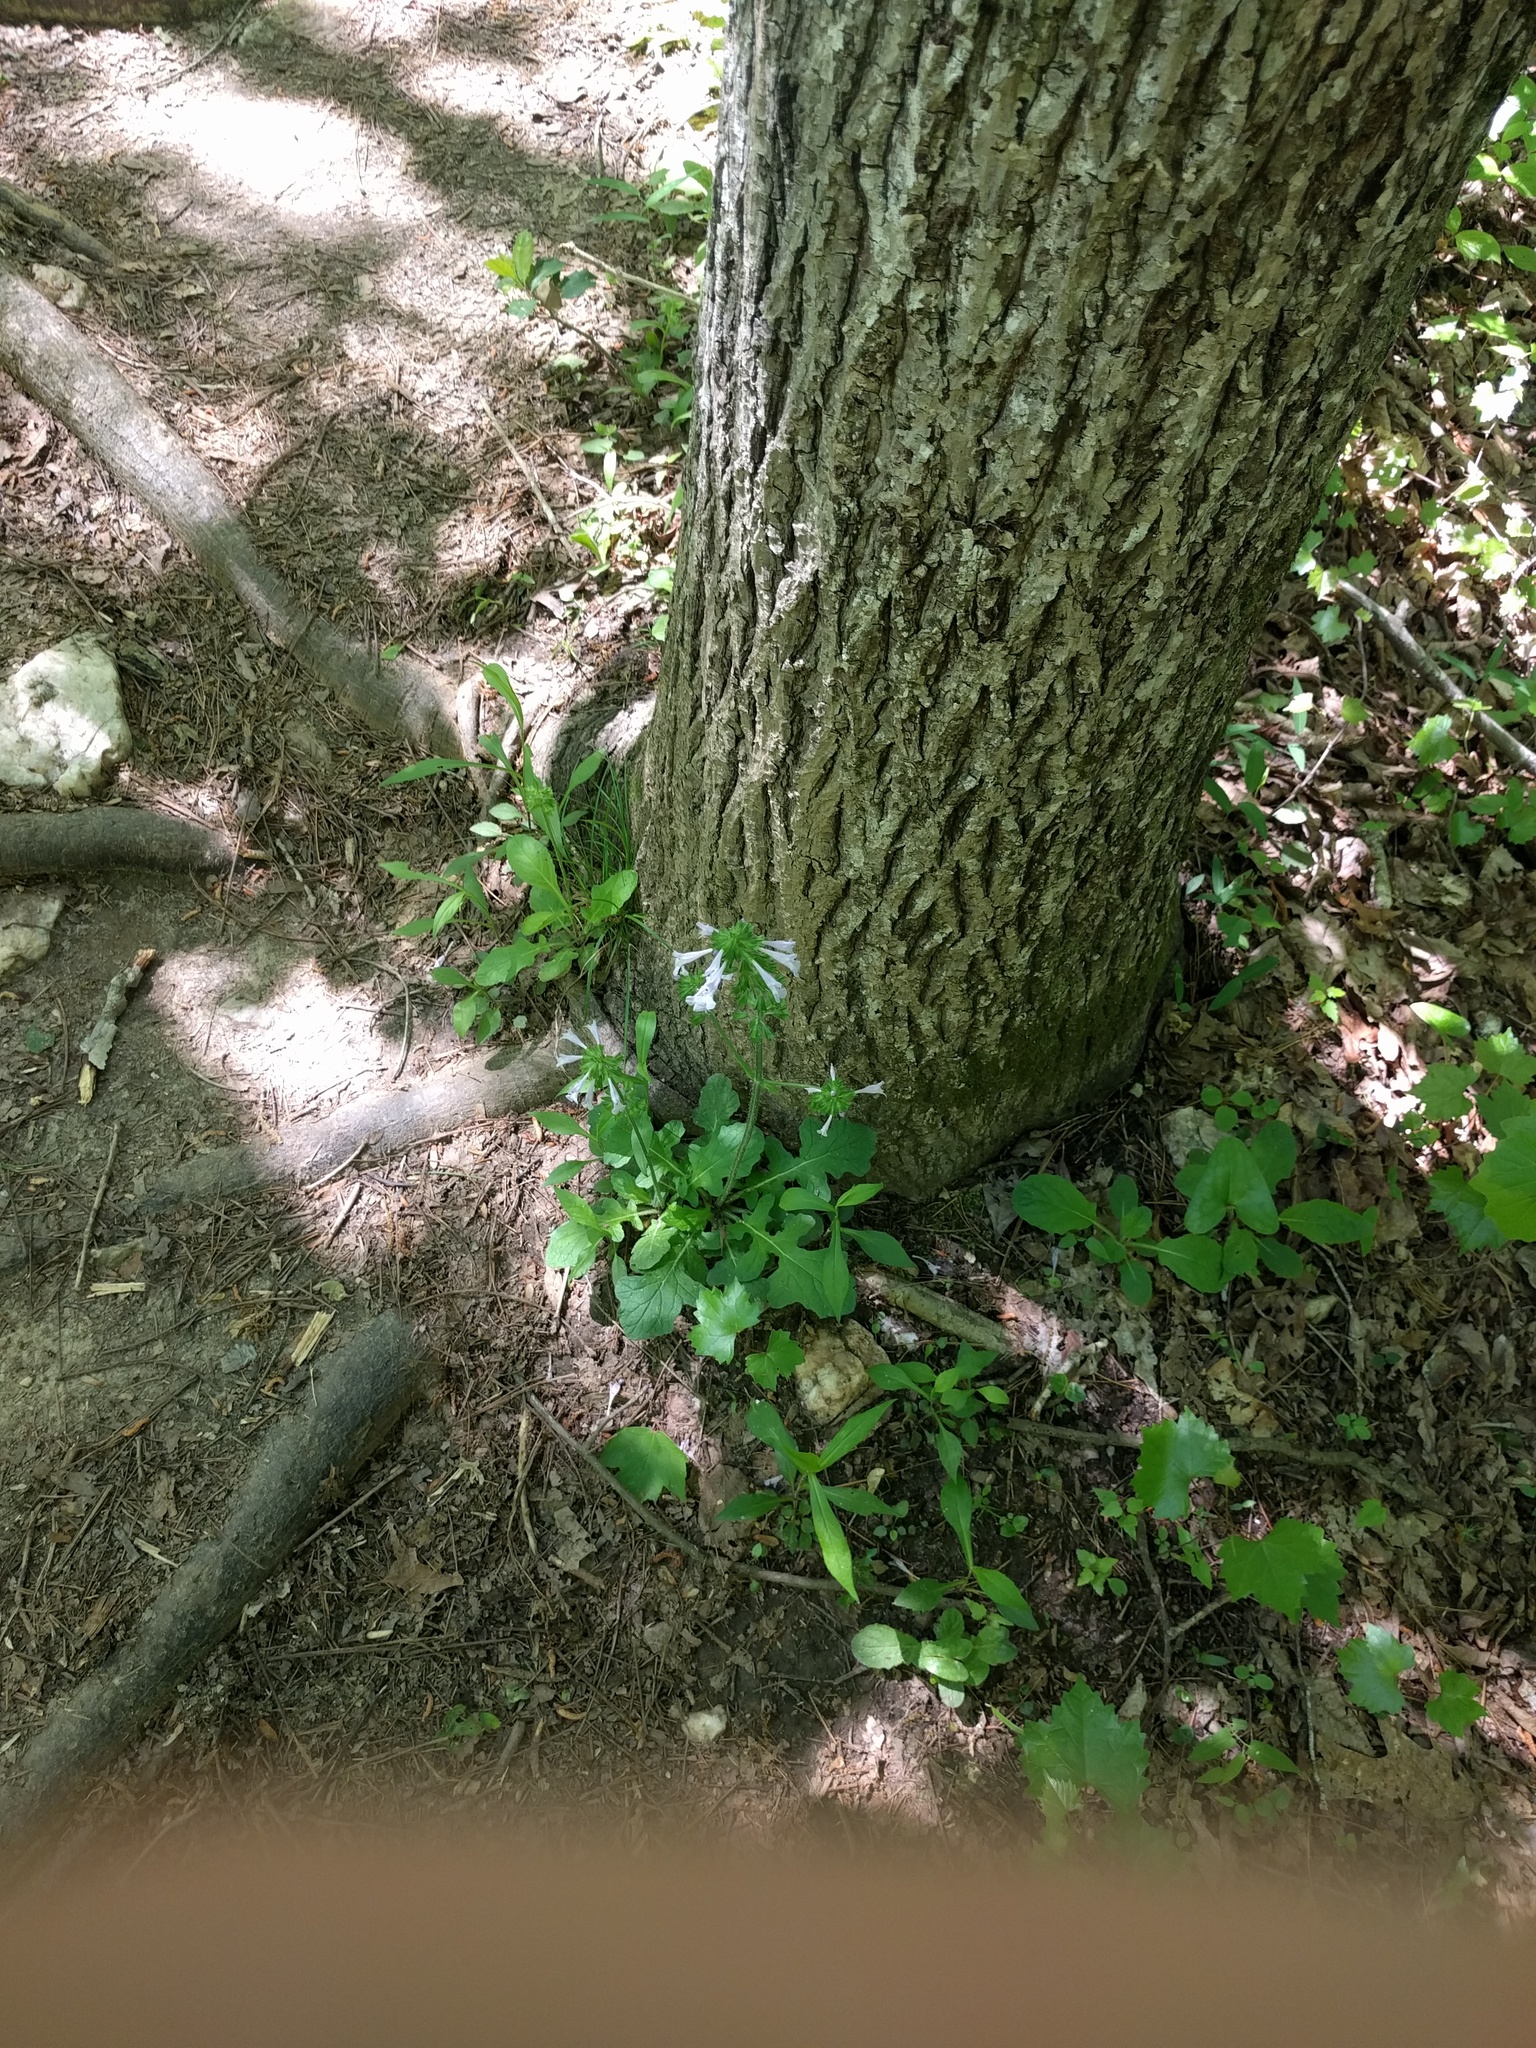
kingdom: Plantae
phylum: Tracheophyta
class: Magnoliopsida
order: Lamiales
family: Lamiaceae
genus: Salvia
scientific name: Salvia lyrata
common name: Cancerweed
